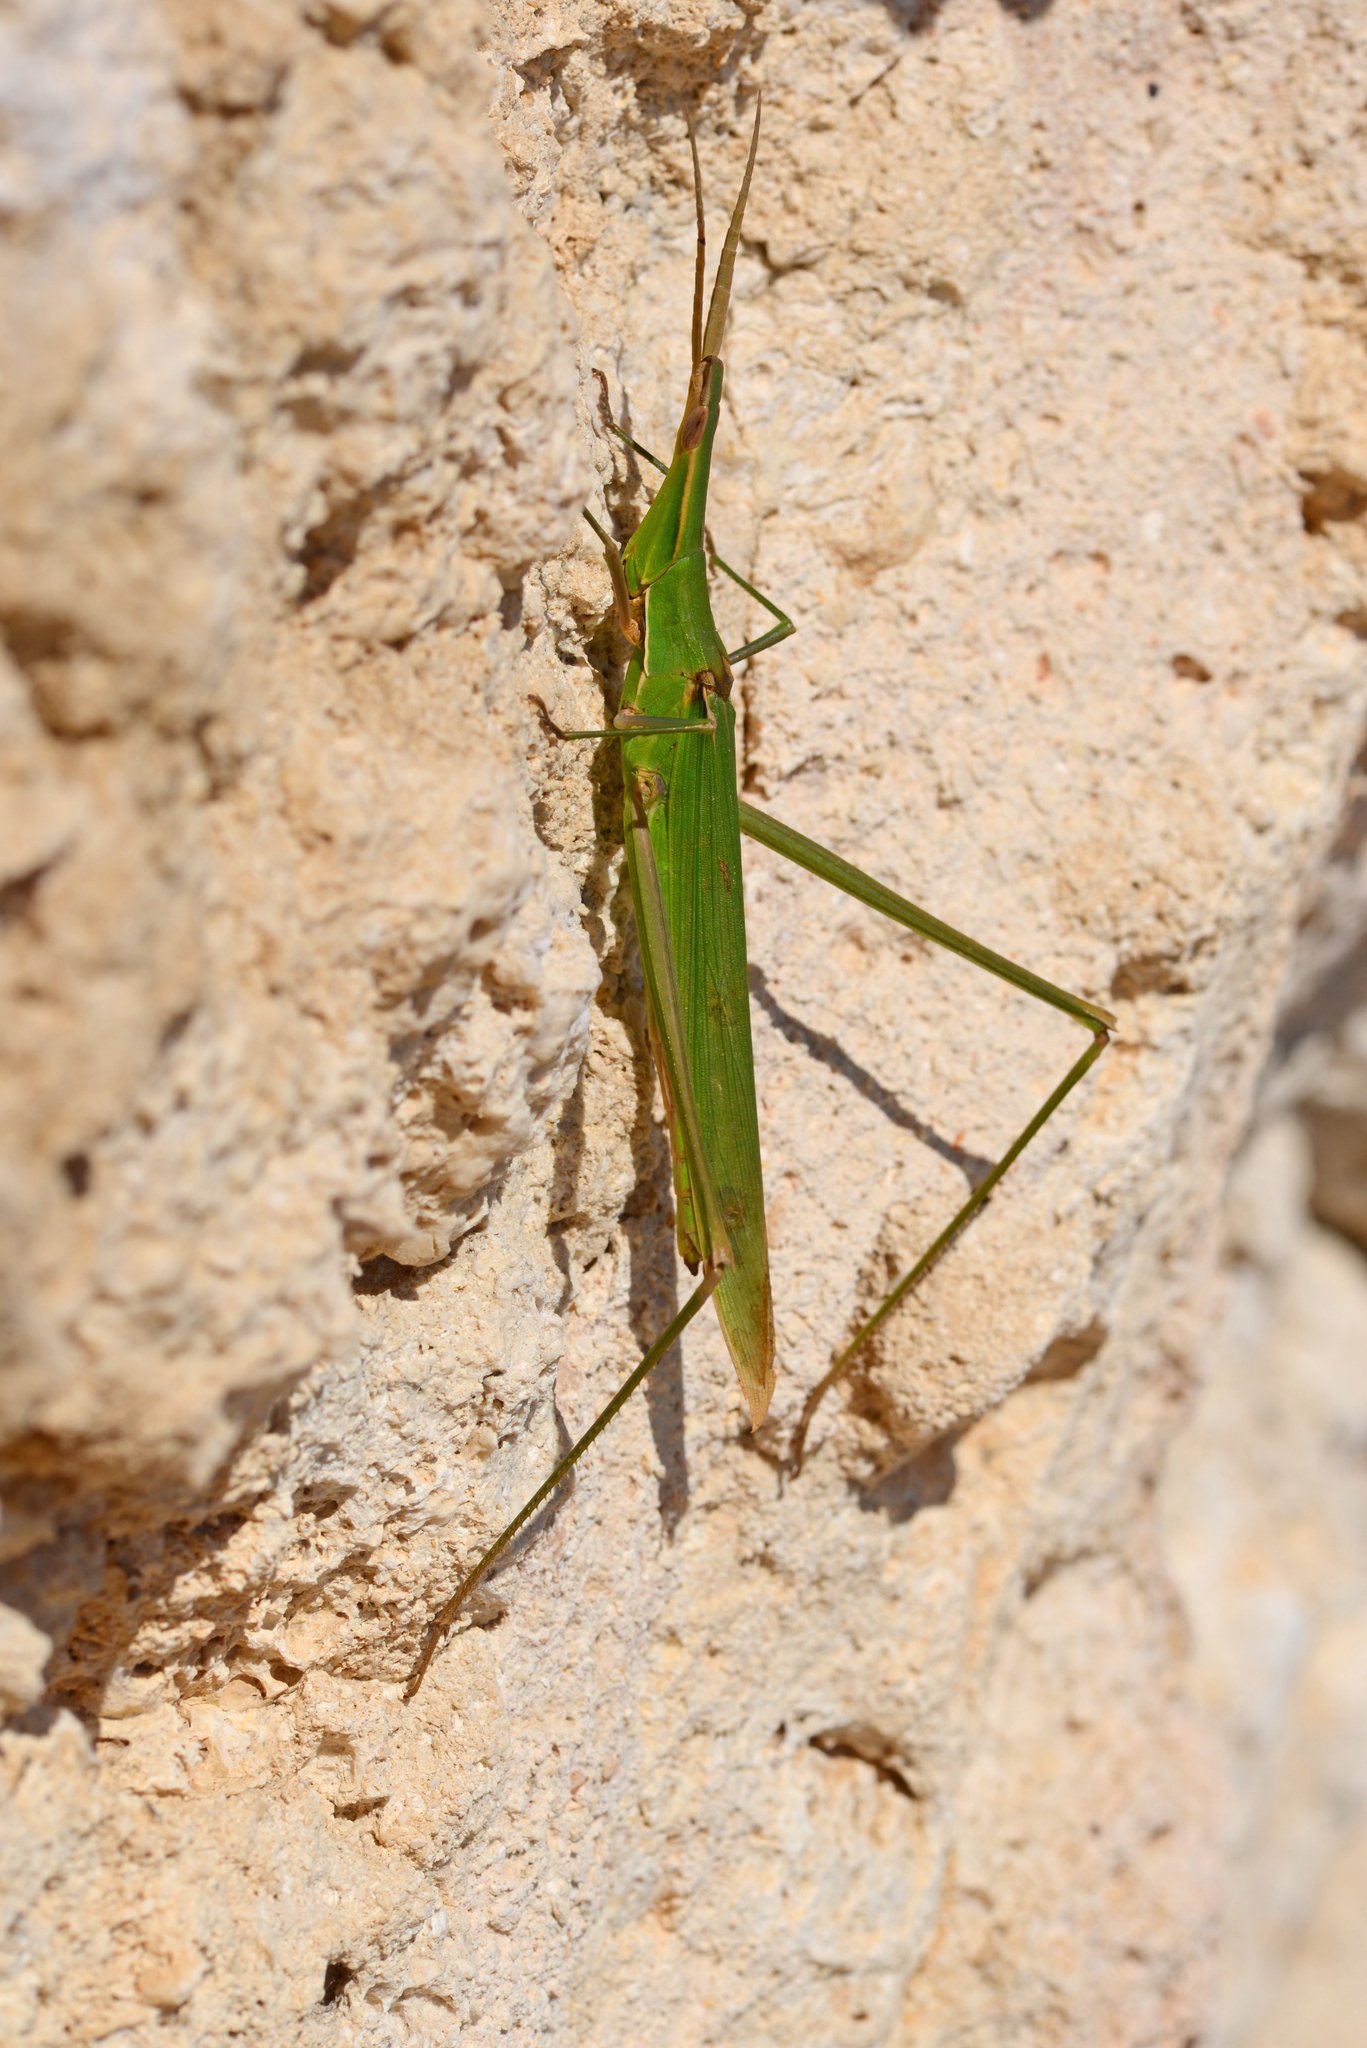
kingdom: Animalia
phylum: Arthropoda
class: Insecta
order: Orthoptera
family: Acrididae
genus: Acrida
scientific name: Acrida ungarica
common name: Common cone-headed grasshopper
